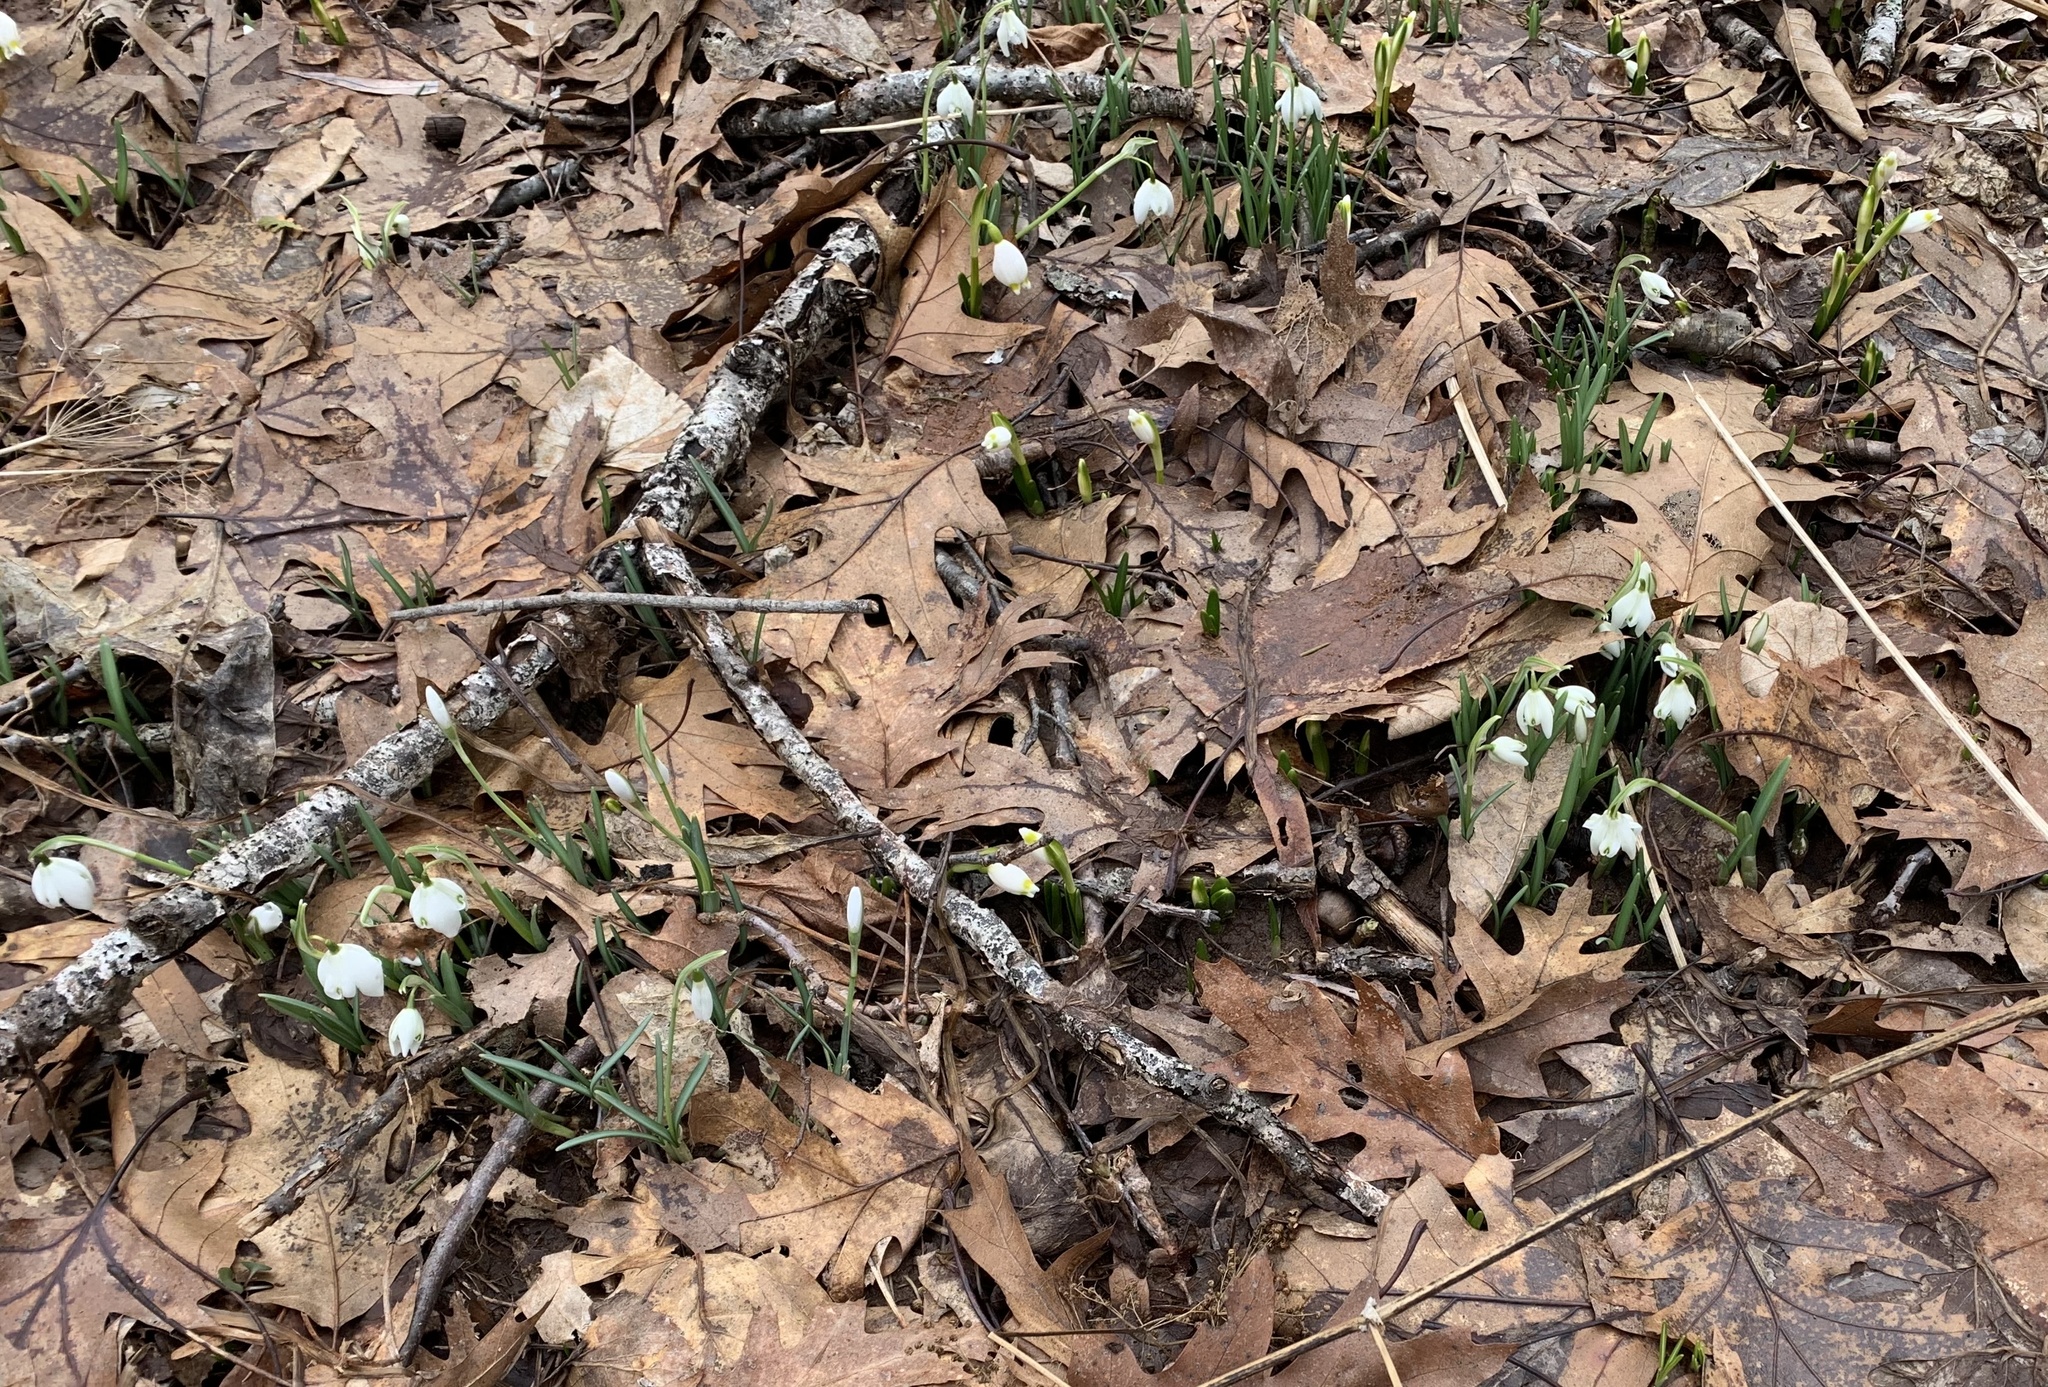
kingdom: Plantae
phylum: Tracheophyta
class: Liliopsida
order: Asparagales
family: Amaryllidaceae
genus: Galanthus
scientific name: Galanthus nivalis
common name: Snowdrop
